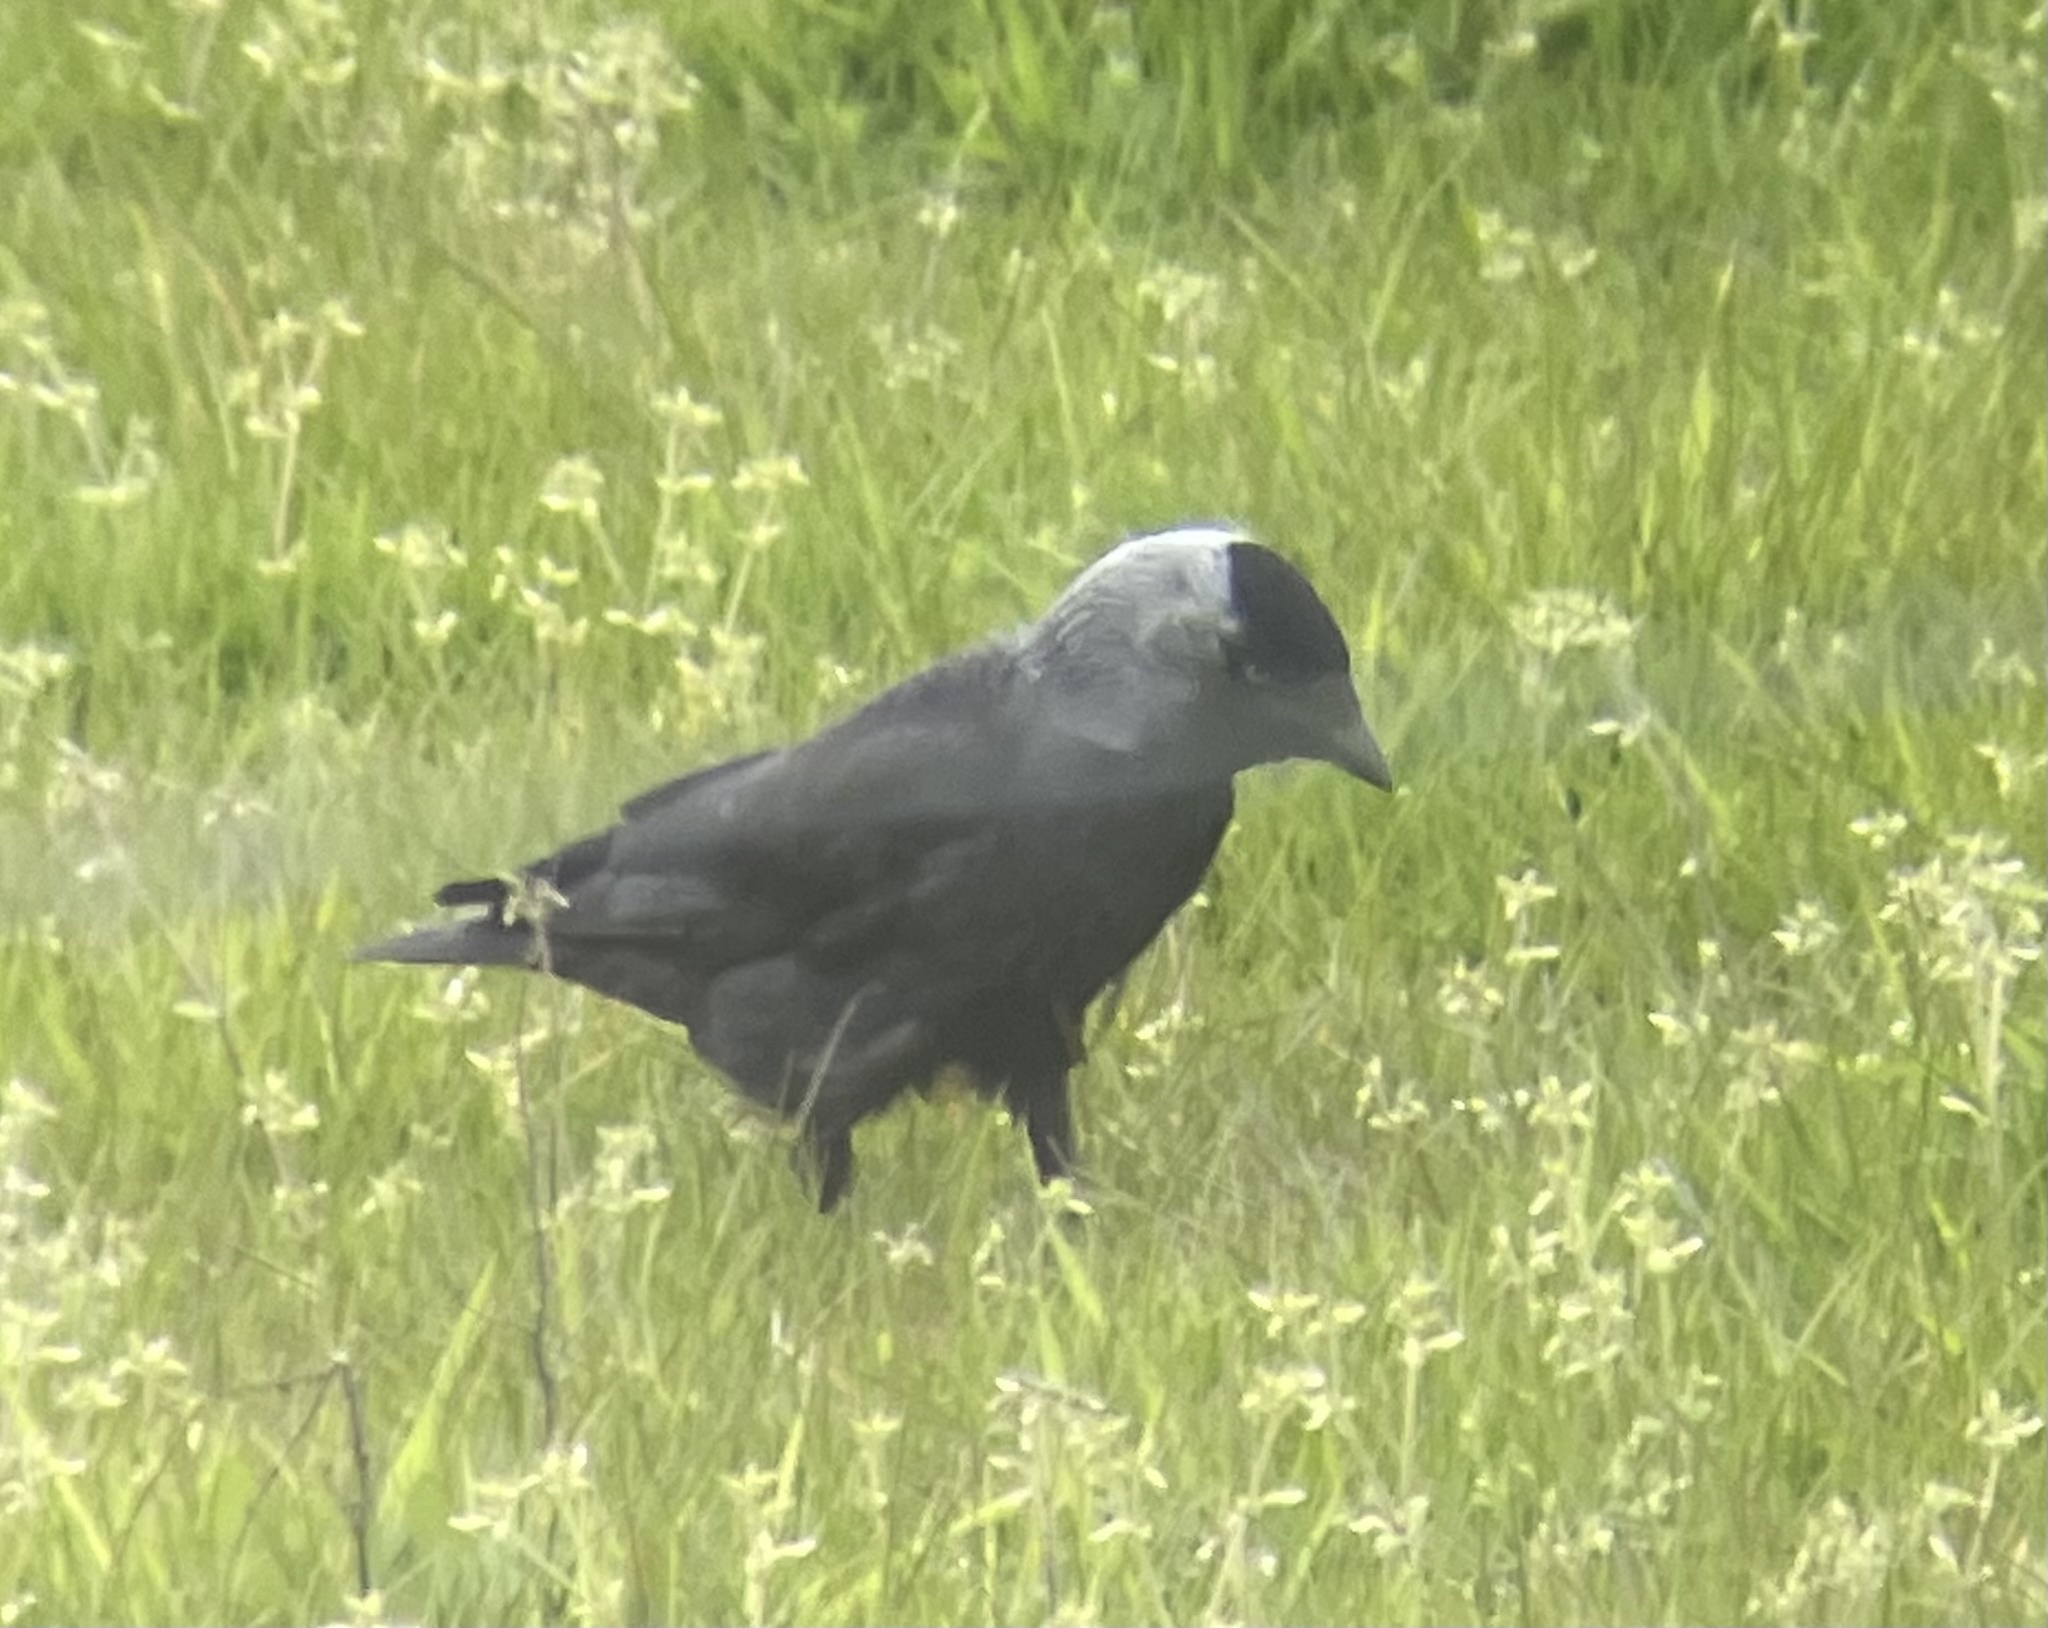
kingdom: Animalia
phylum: Chordata
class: Aves
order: Passeriformes
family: Corvidae
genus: Coloeus
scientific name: Coloeus monedula
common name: Western jackdaw
